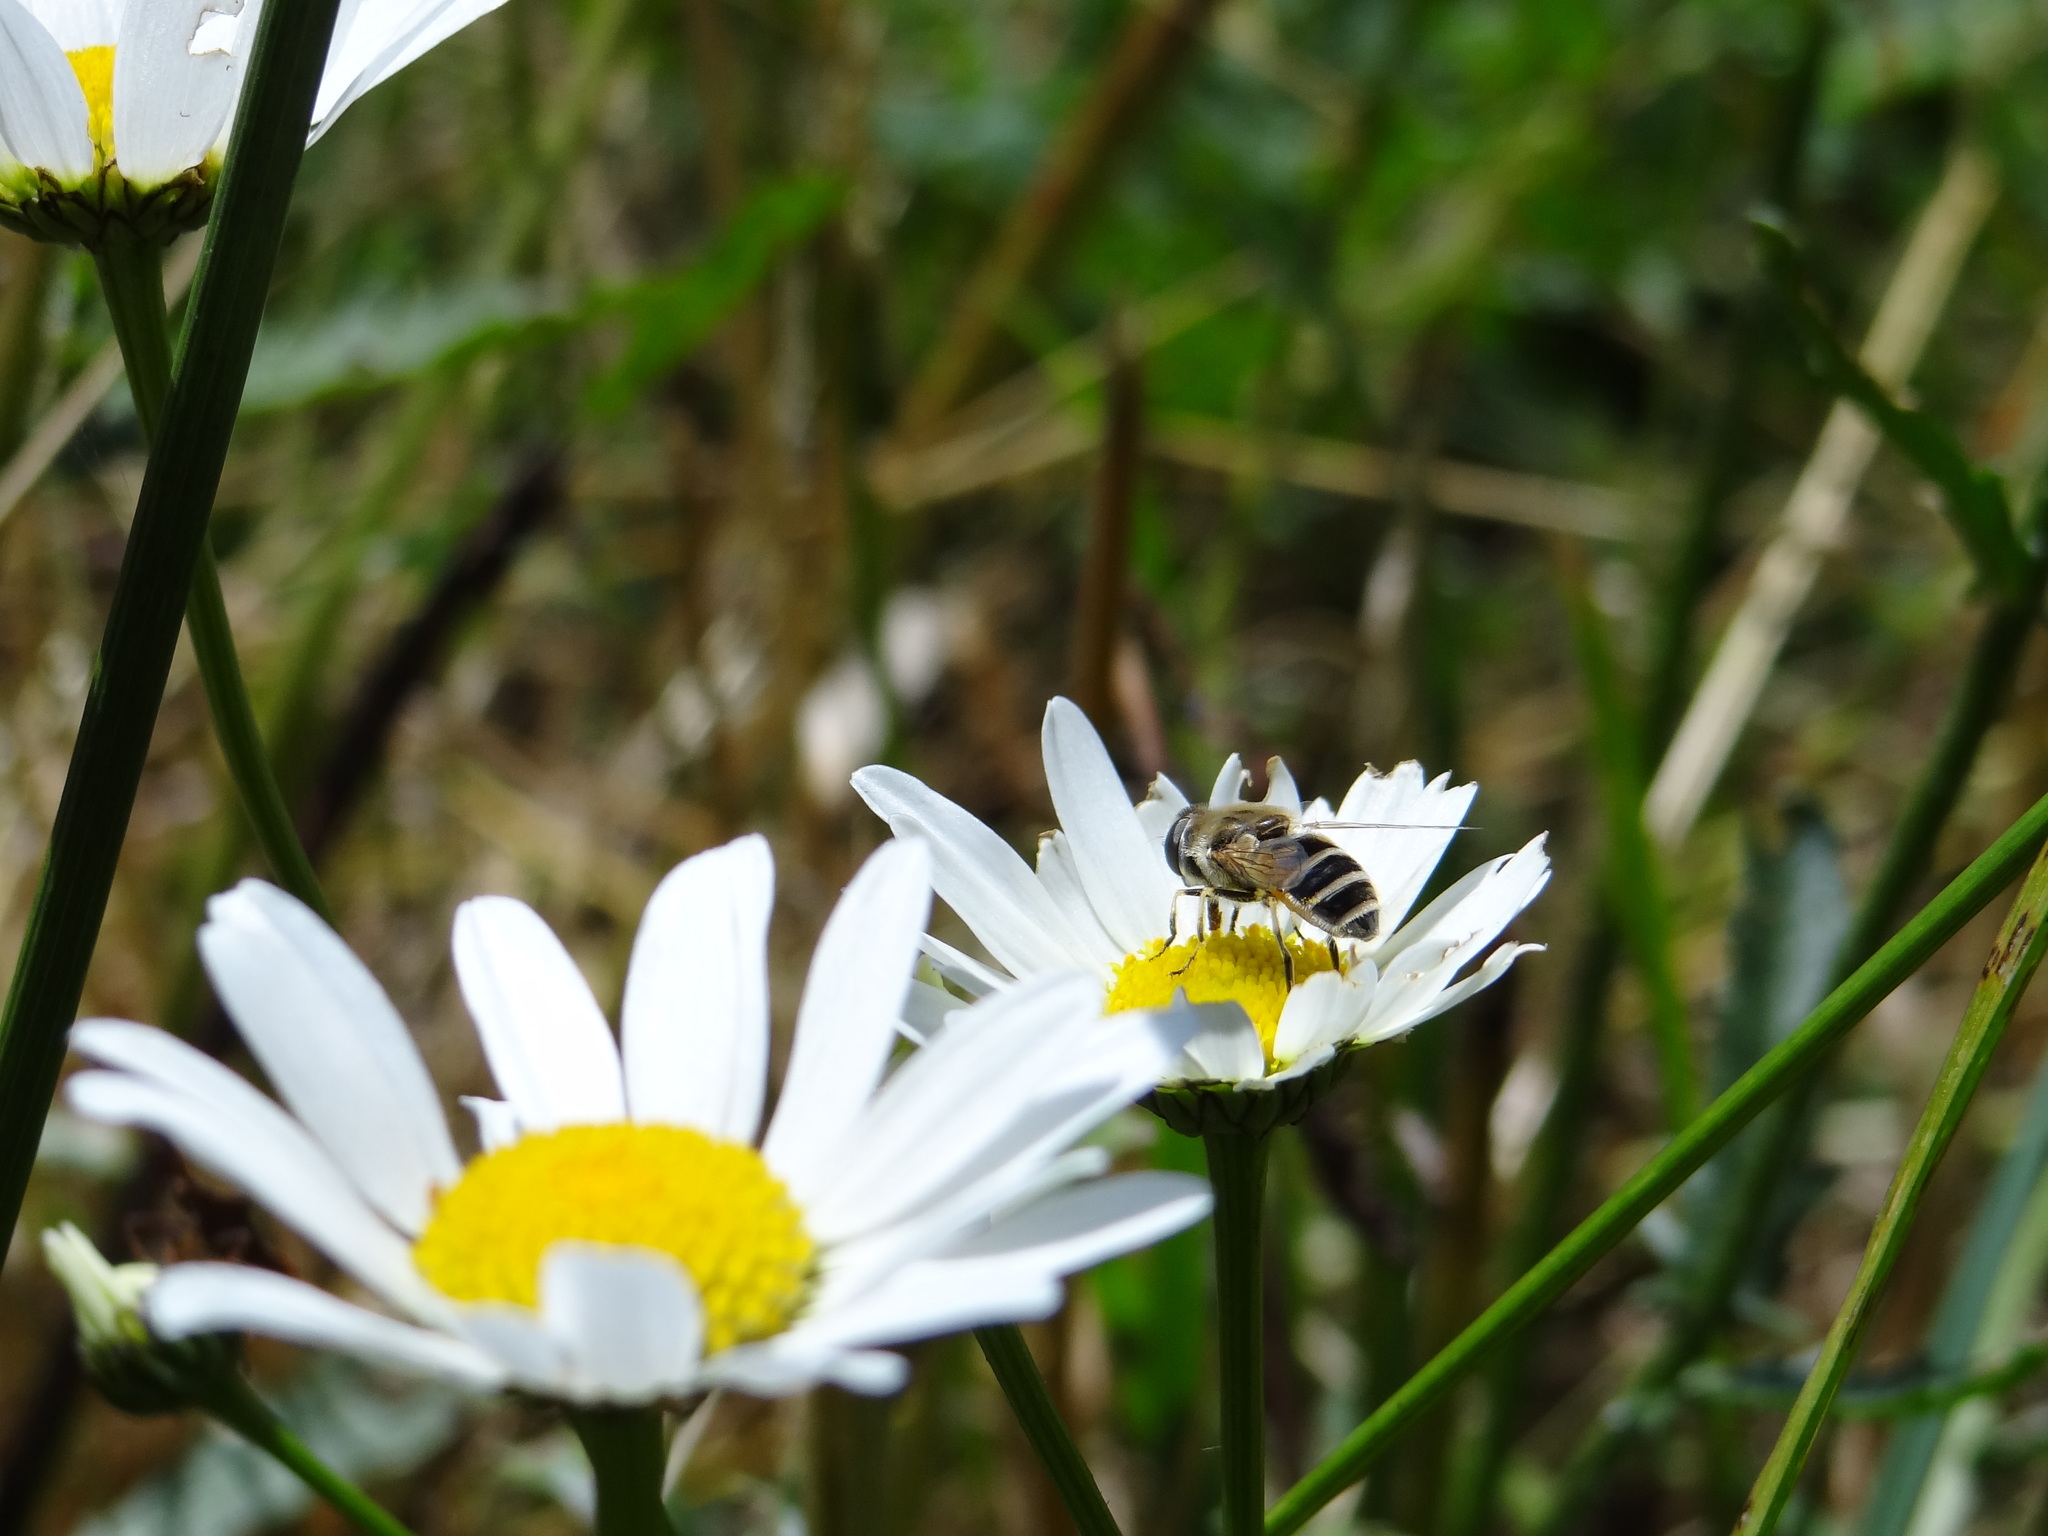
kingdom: Animalia
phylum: Arthropoda
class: Insecta
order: Diptera
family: Syrphidae
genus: Eristalis
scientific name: Eristalis arbustorum
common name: Hover fly
